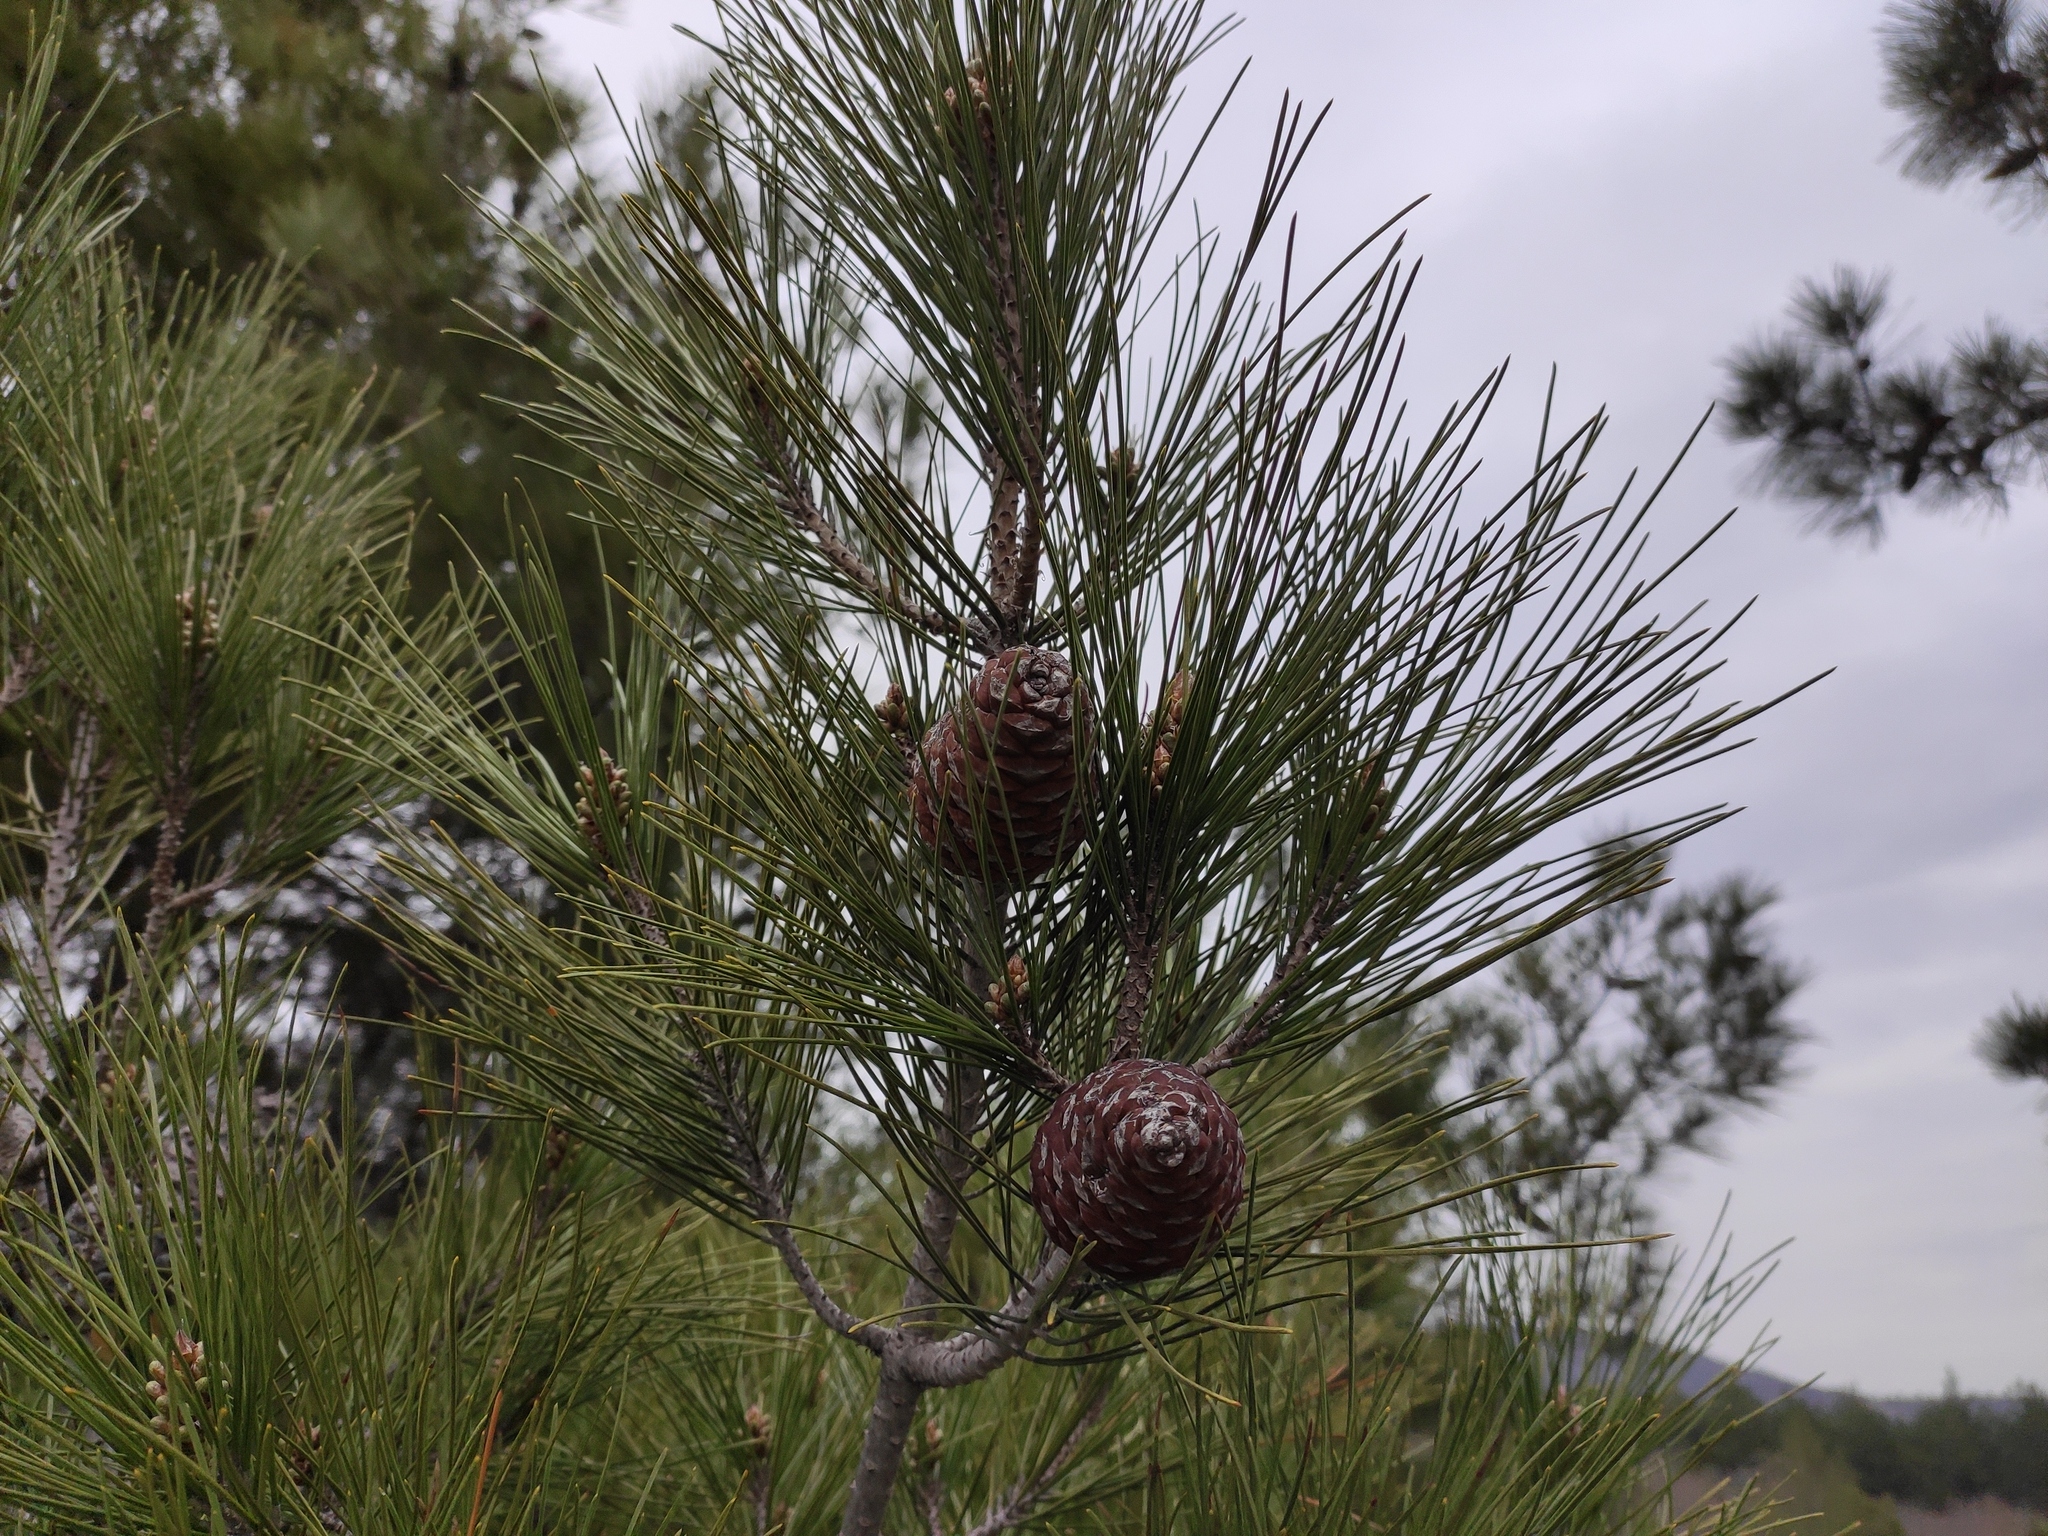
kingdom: Plantae
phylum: Tracheophyta
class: Pinopsida
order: Pinales
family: Pinaceae
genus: Pinus
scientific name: Pinus brutia
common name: Turkish pine
